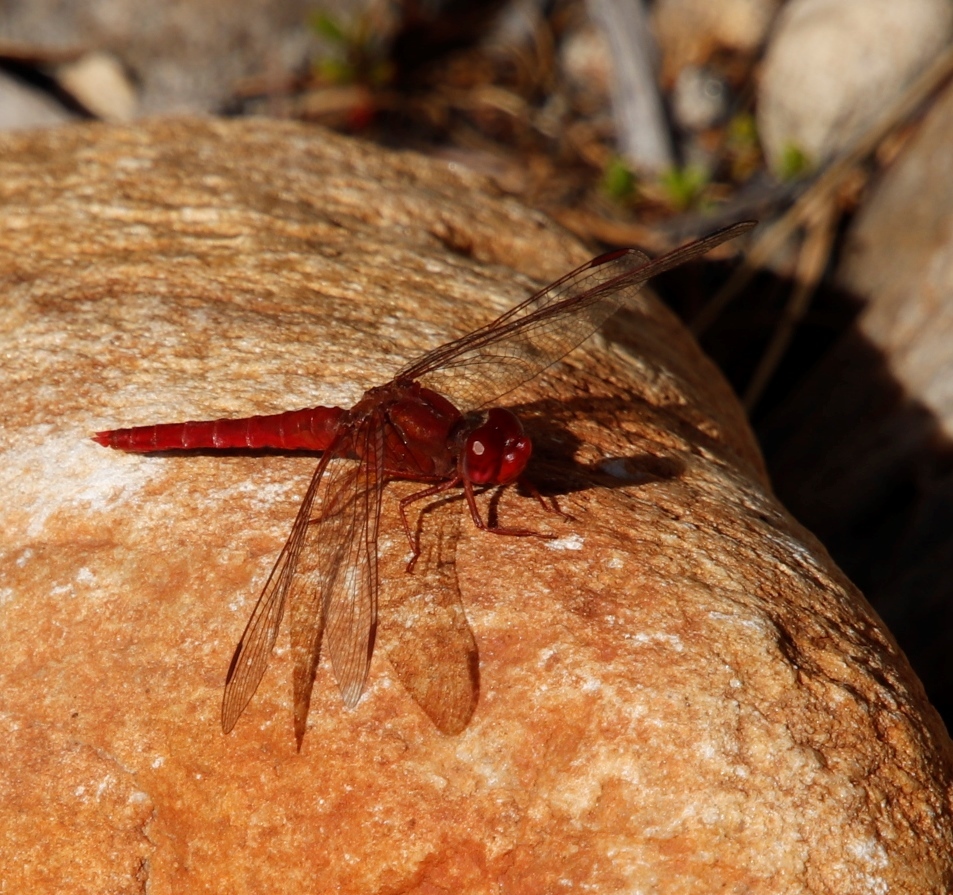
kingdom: Animalia
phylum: Arthropoda
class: Insecta
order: Odonata
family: Libellulidae
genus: Crocothemis
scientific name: Crocothemis sanguinolenta
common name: Little scarlet
